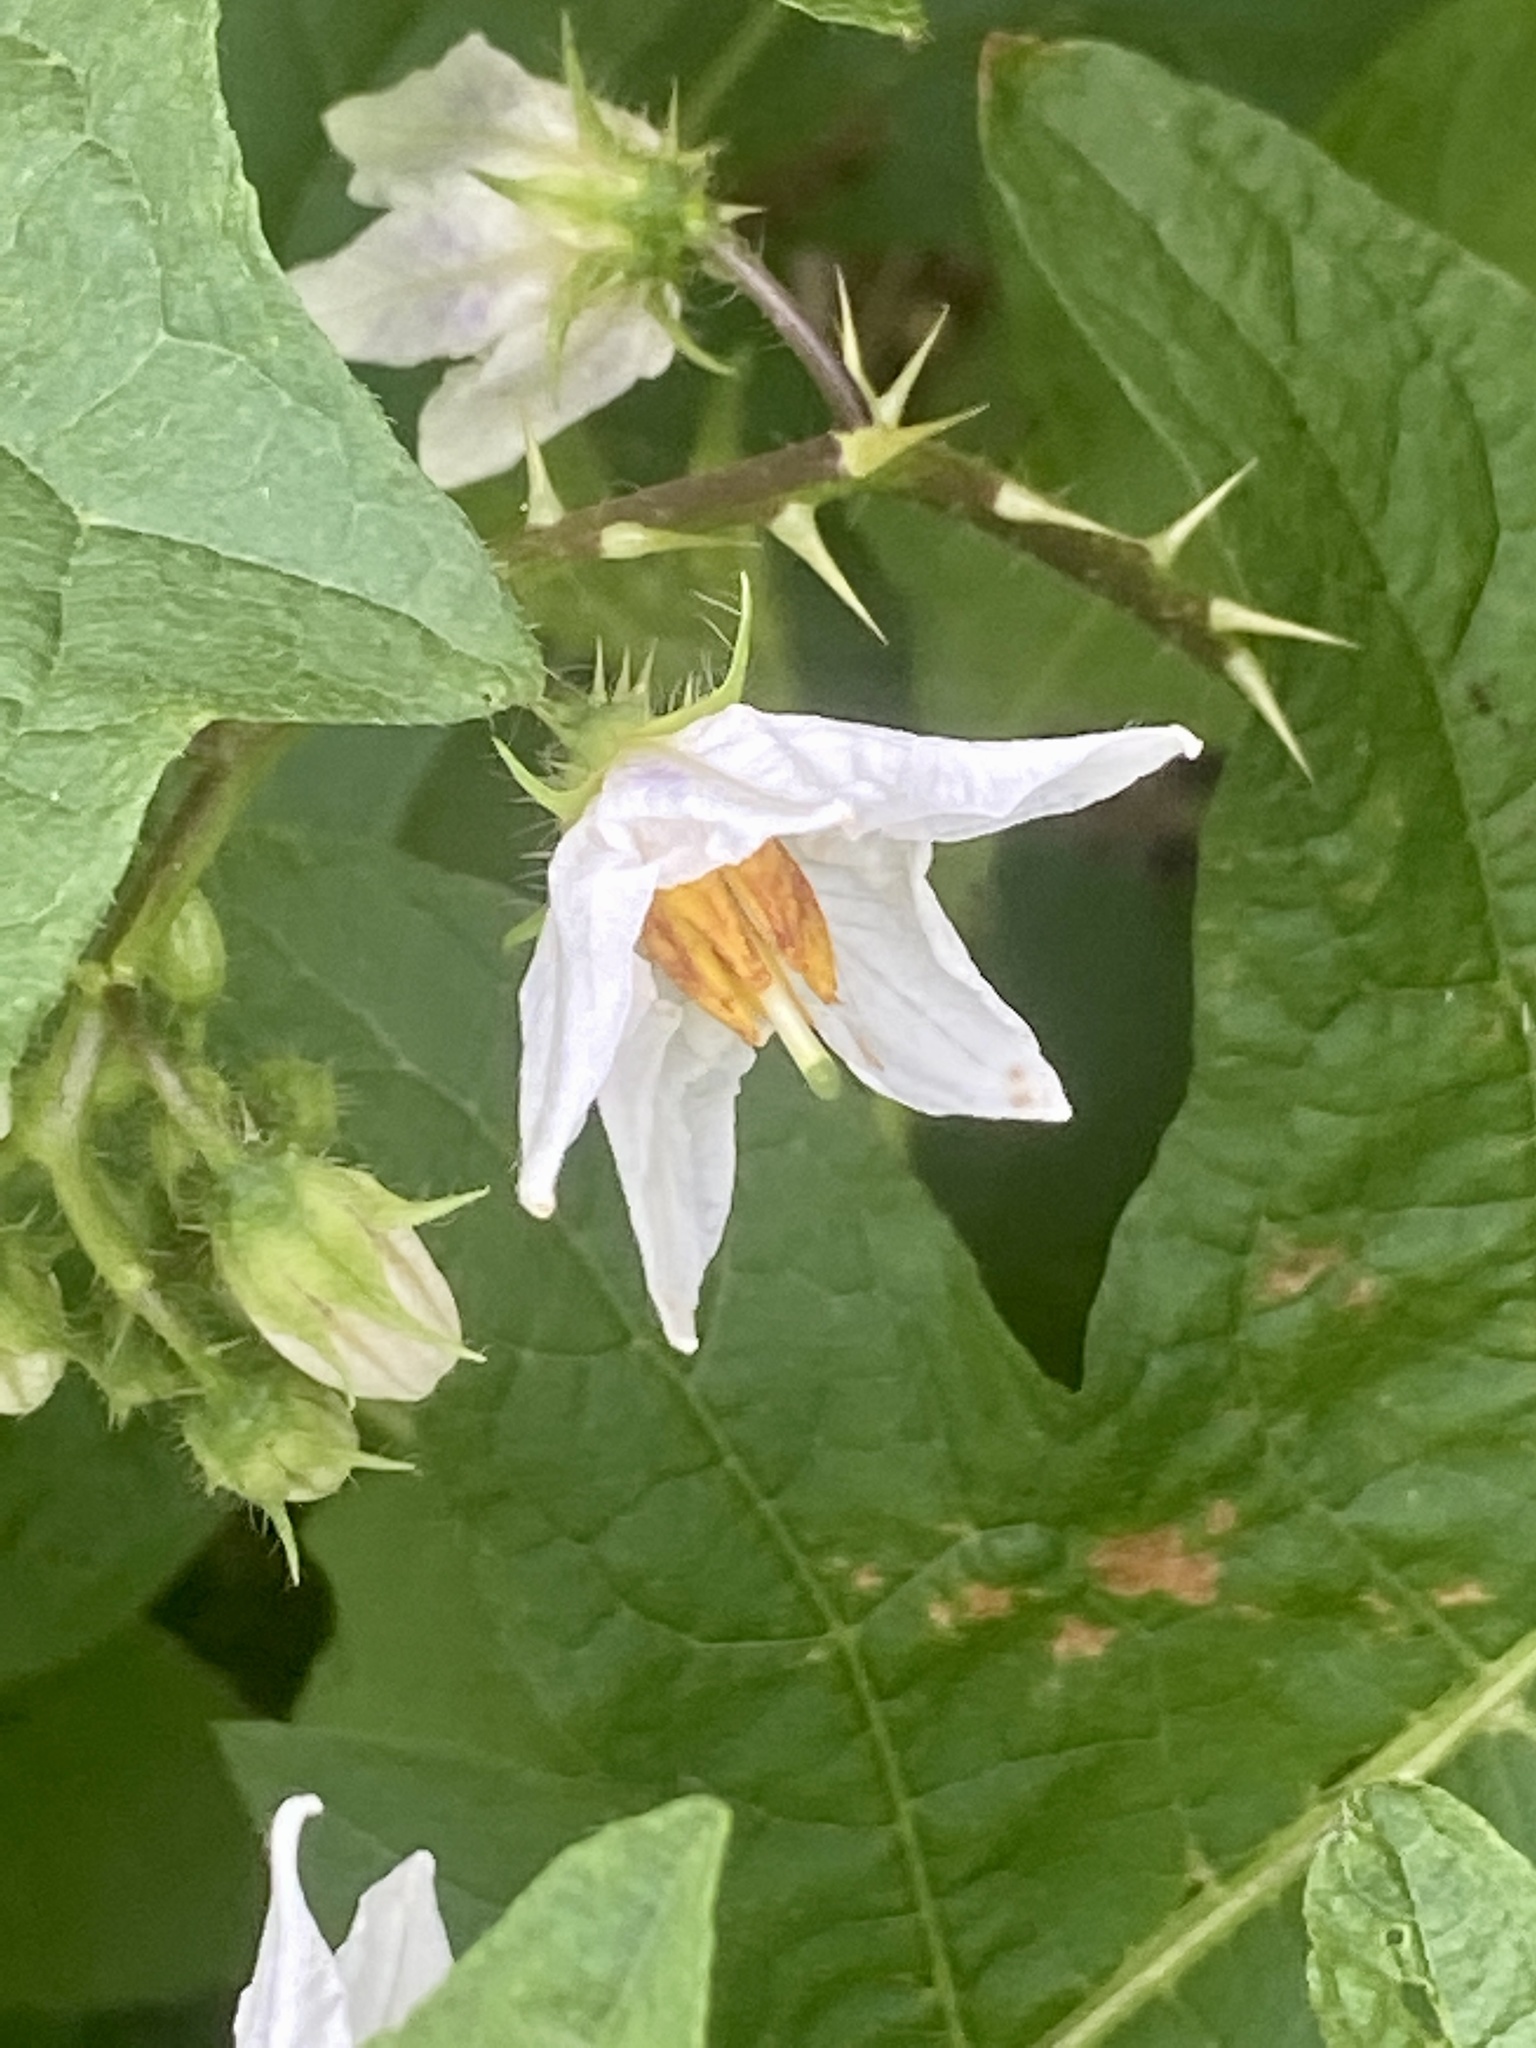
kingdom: Plantae
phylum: Tracheophyta
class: Magnoliopsida
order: Solanales
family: Solanaceae
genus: Solanum
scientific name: Solanum carolinense
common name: Horse-nettle
